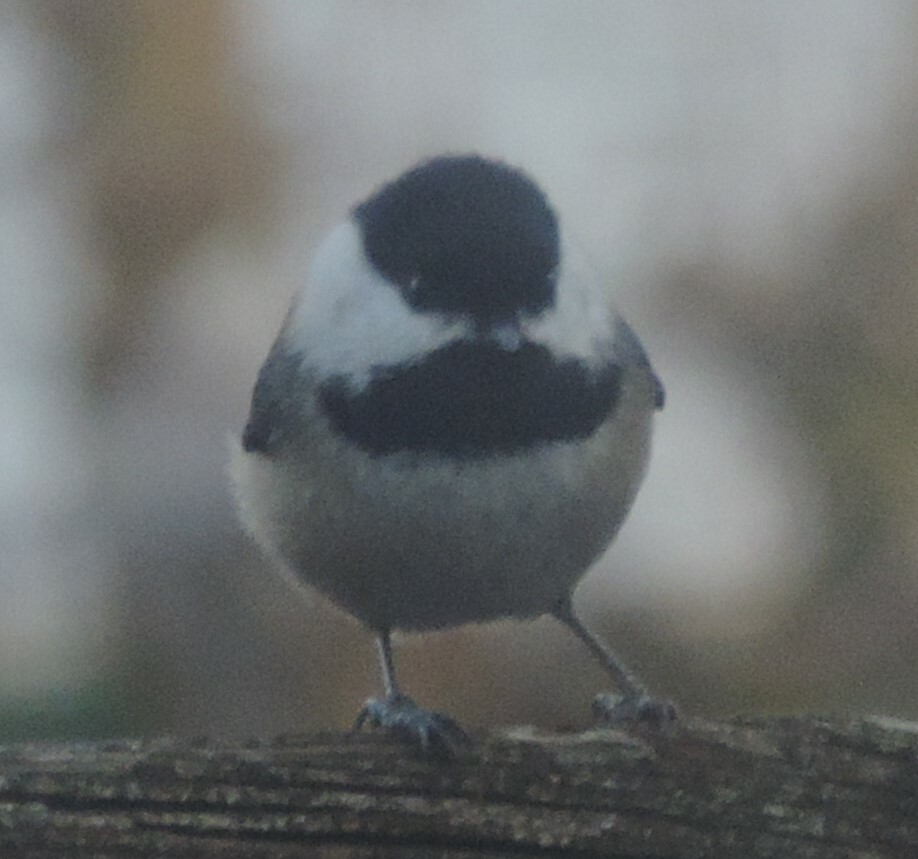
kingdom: Animalia
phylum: Chordata
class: Aves
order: Passeriformes
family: Paridae
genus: Poecile
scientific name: Poecile atricapillus
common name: Black-capped chickadee
